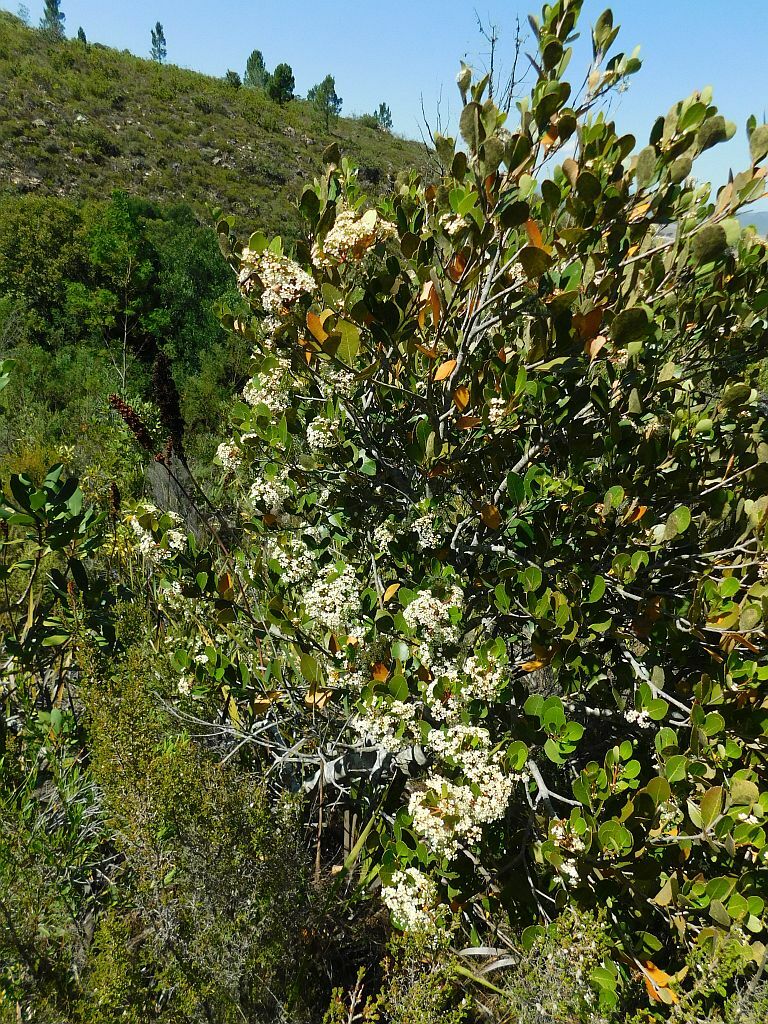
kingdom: Plantae
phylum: Tracheophyta
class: Magnoliopsida
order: Celastrales
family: Celastraceae
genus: Cassine
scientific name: Cassine peragua
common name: Cape saffron
